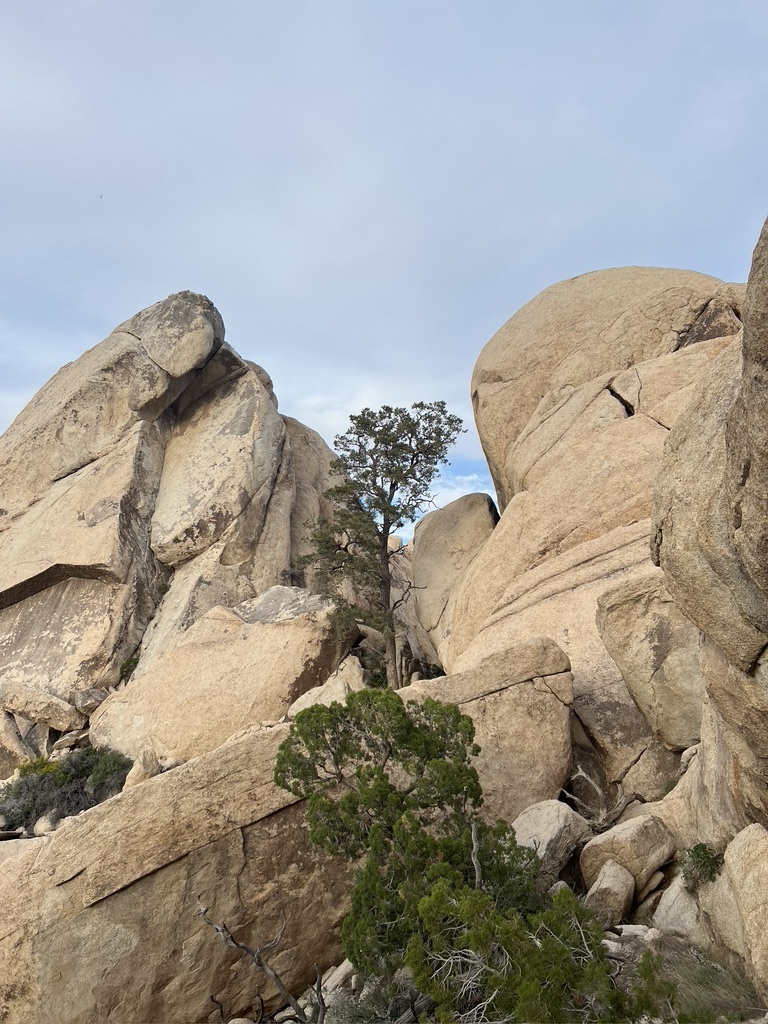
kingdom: Plantae
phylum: Tracheophyta
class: Pinopsida
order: Pinales
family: Pinaceae
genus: Pinus
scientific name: Pinus monophylla
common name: One-leaved nut pine
